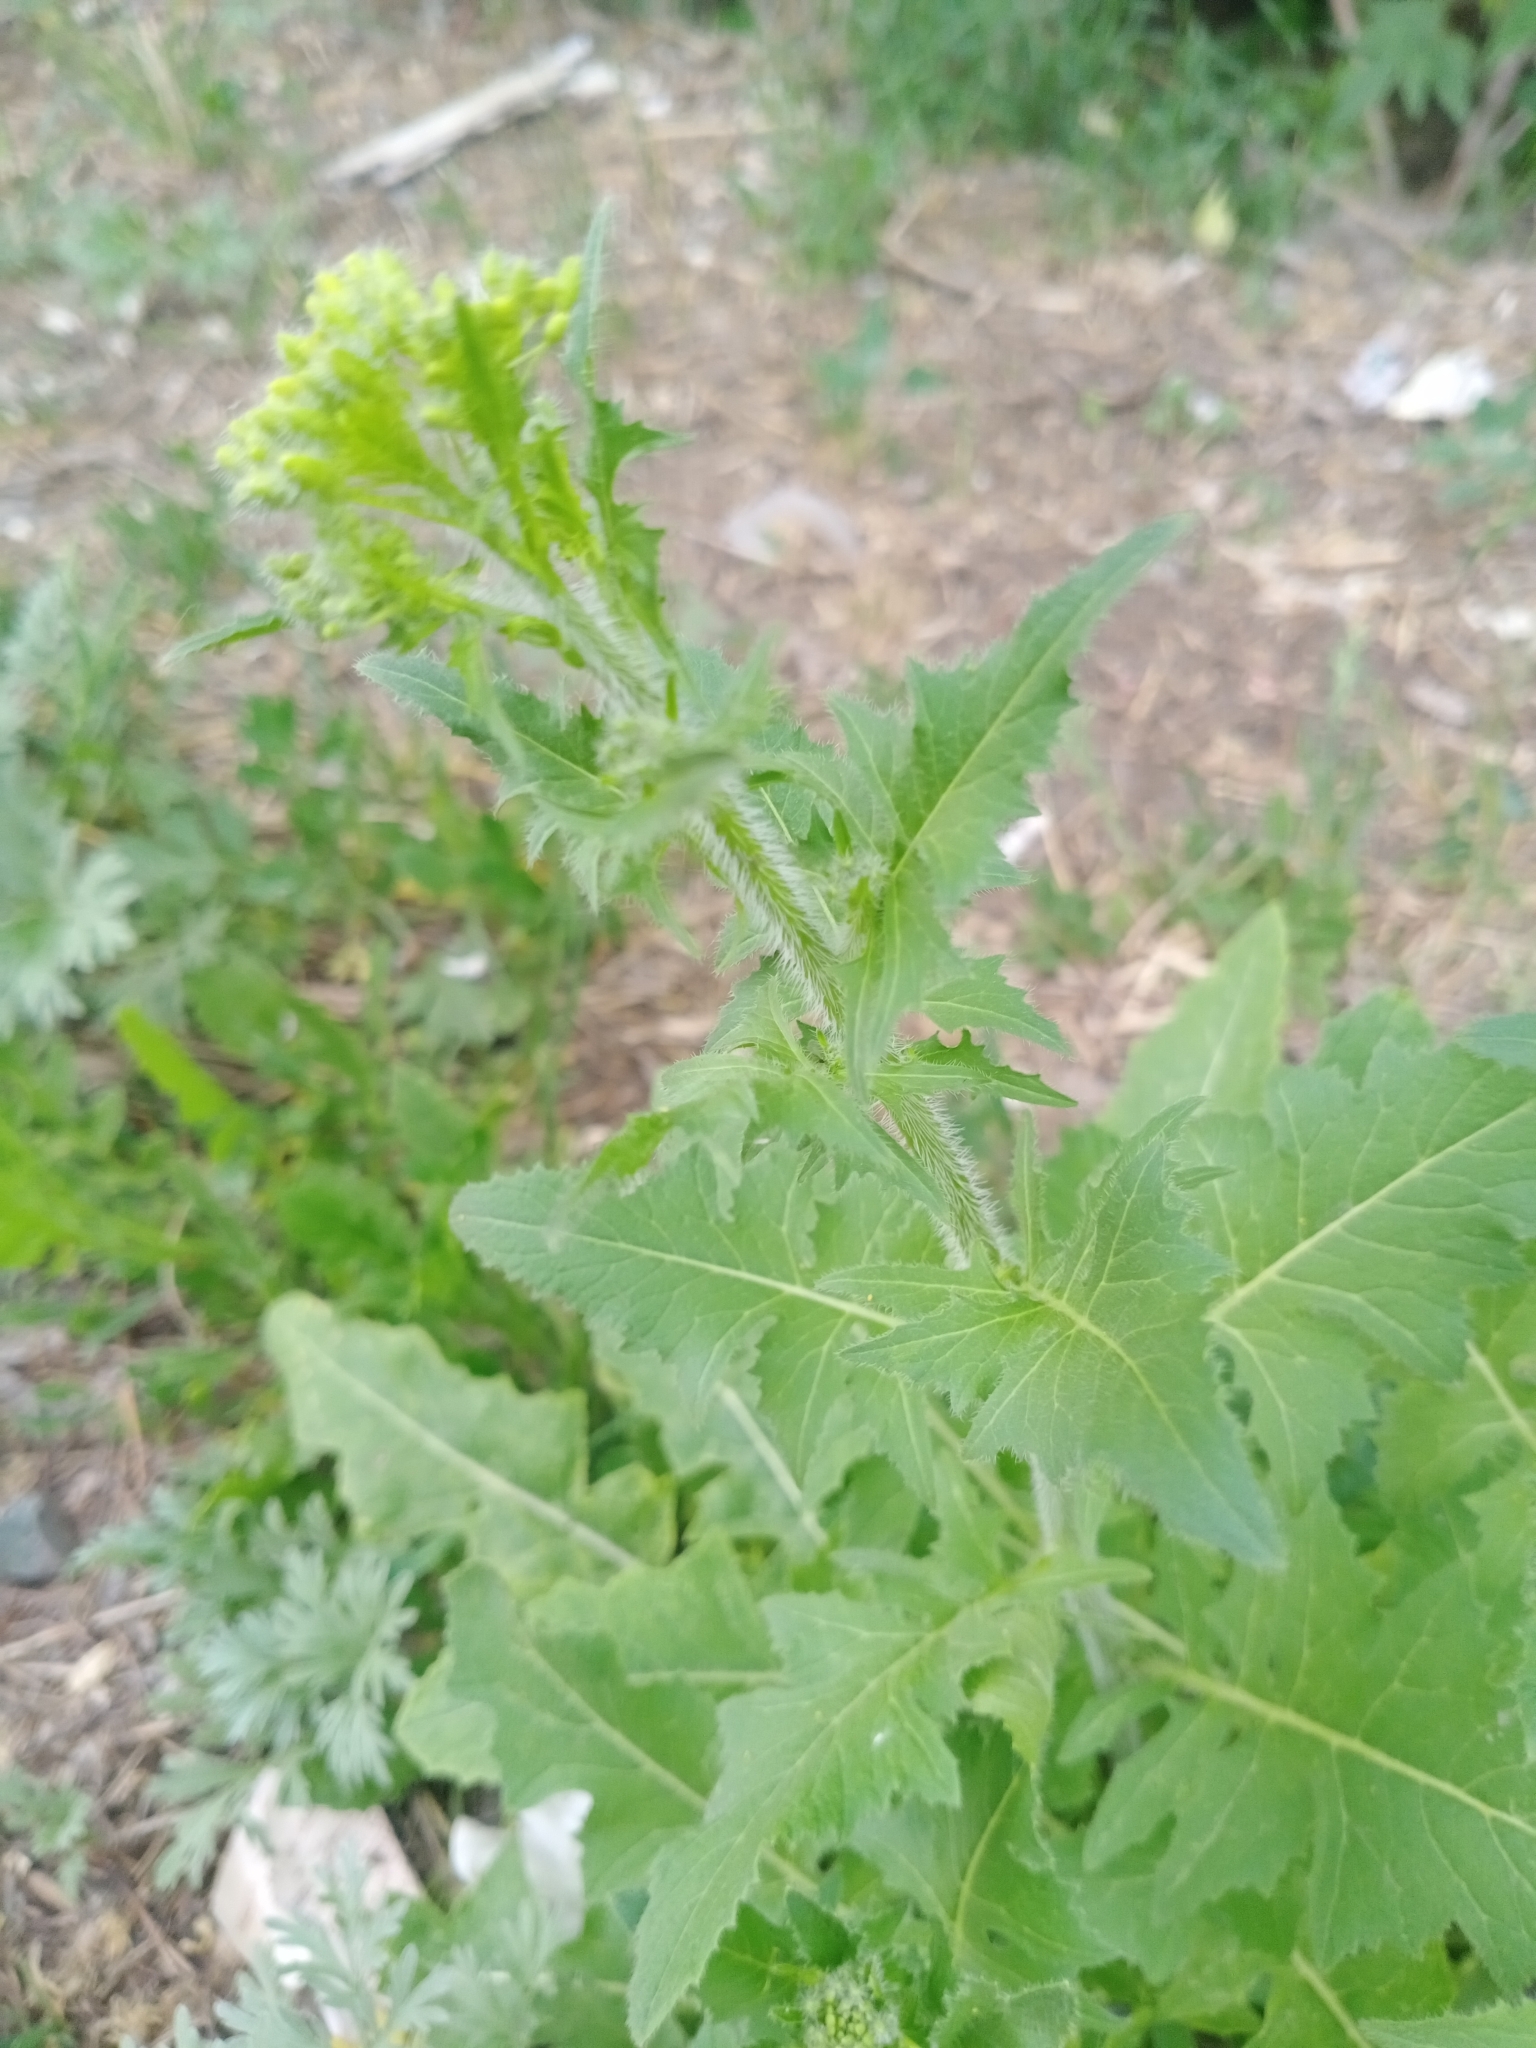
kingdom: Plantae
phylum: Tracheophyta
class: Magnoliopsida
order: Brassicales
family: Brassicaceae
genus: Sisymbrium
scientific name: Sisymbrium loeselii
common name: False london-rocket
